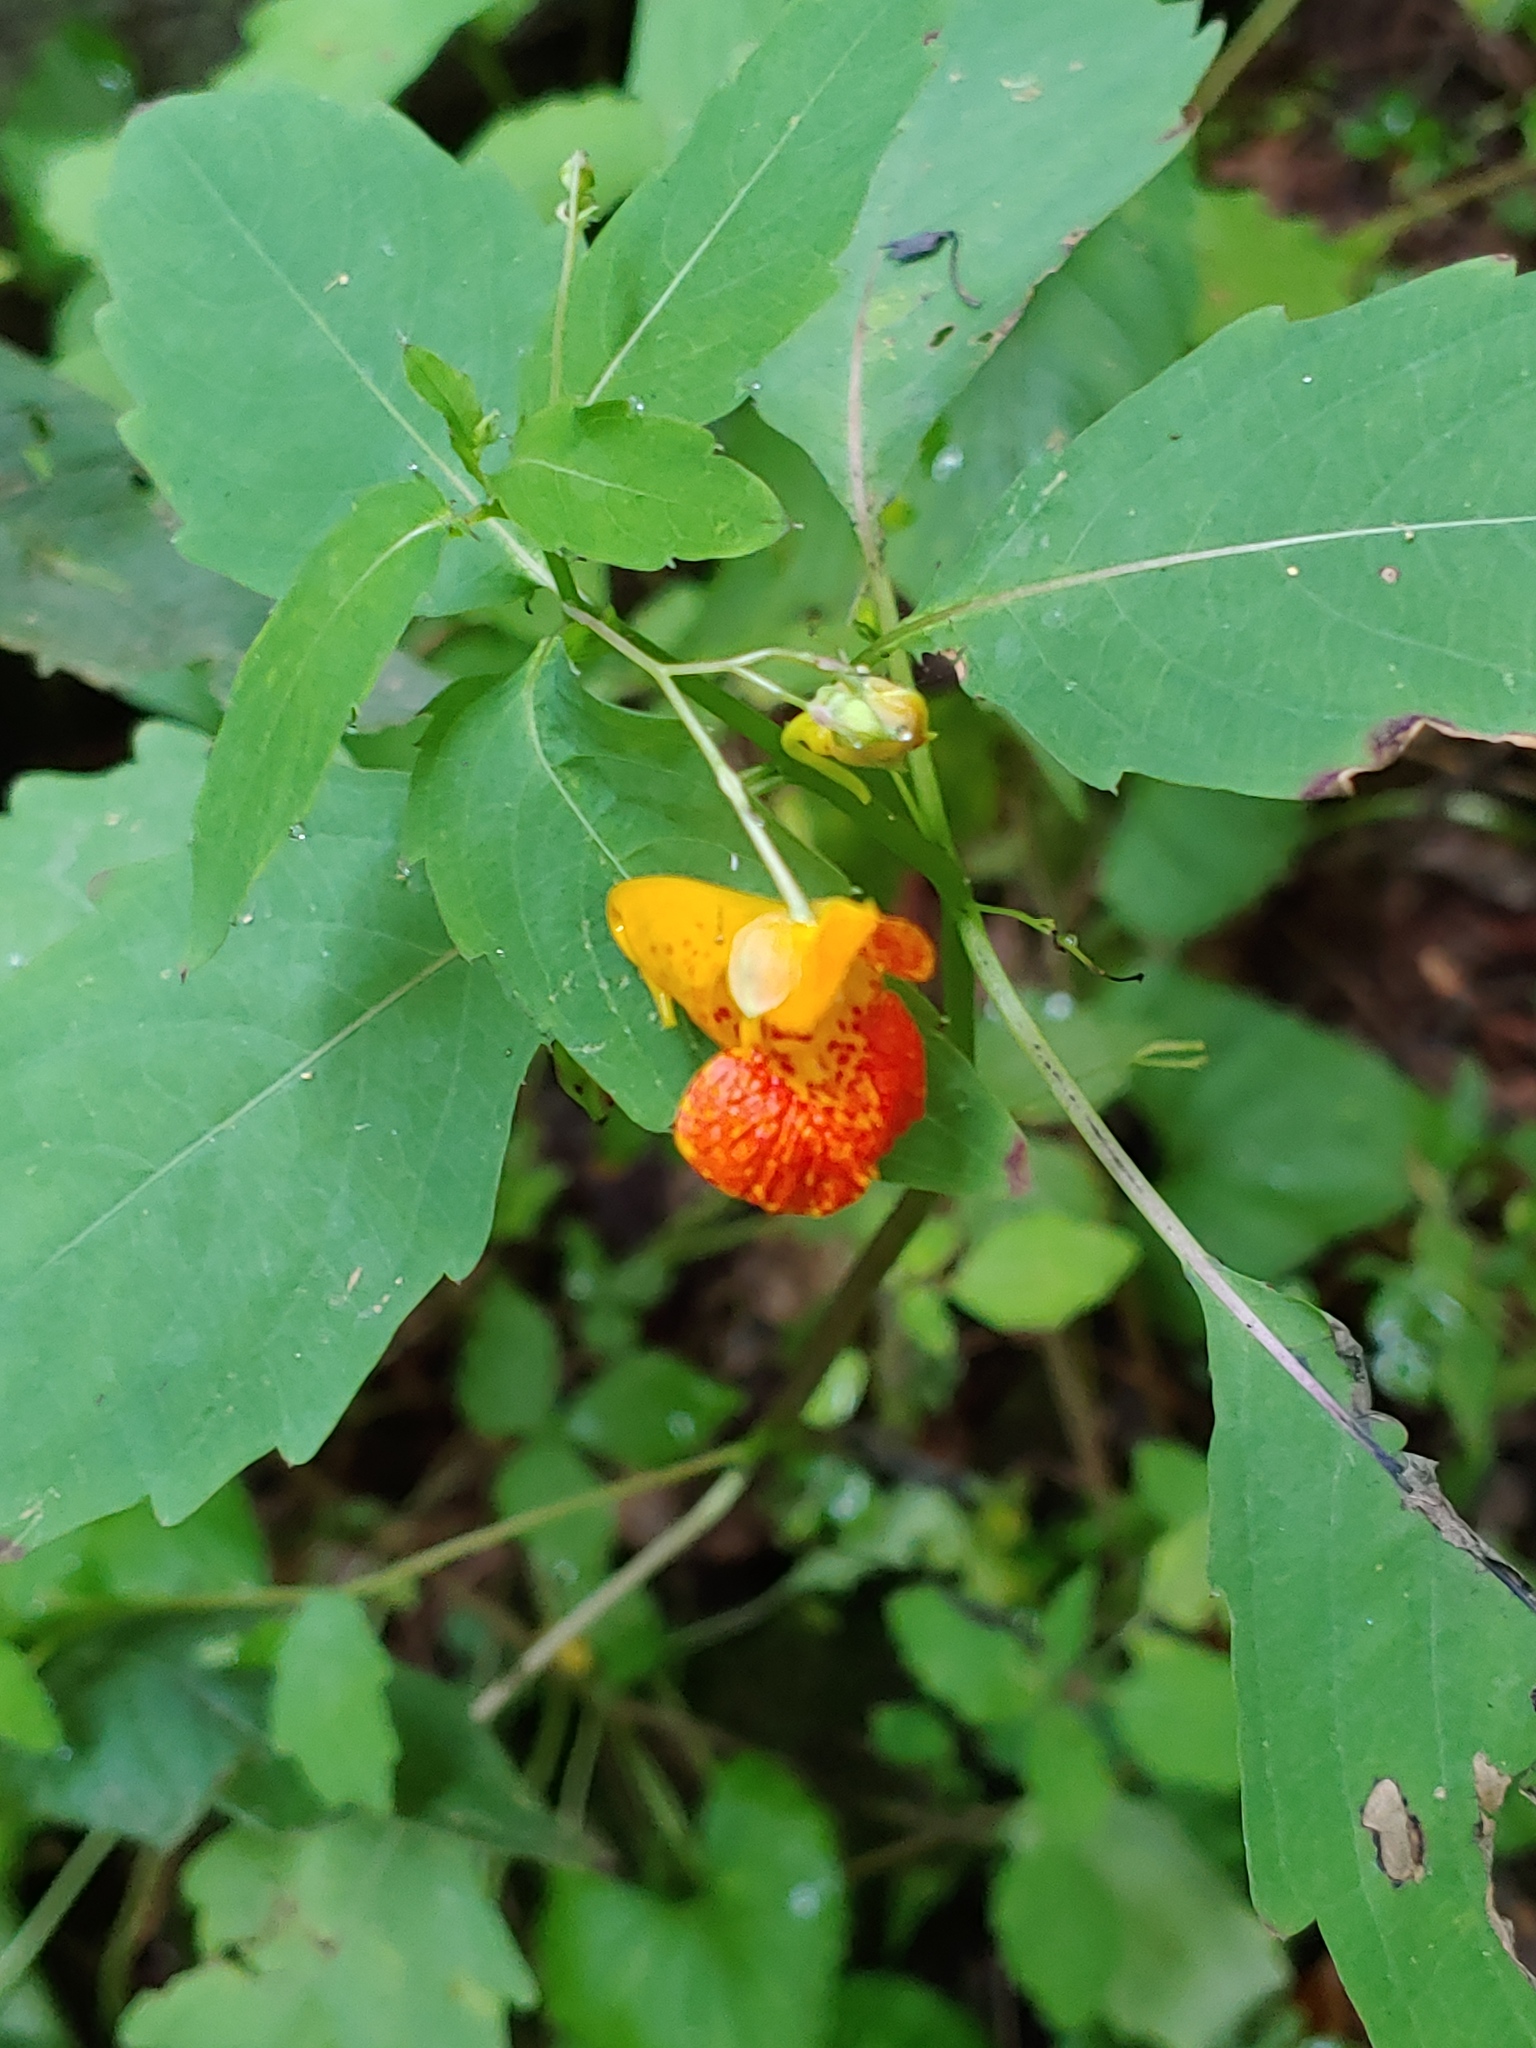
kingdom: Plantae
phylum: Tracheophyta
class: Magnoliopsida
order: Ericales
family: Balsaminaceae
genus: Impatiens
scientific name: Impatiens capensis
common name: Orange balsam
